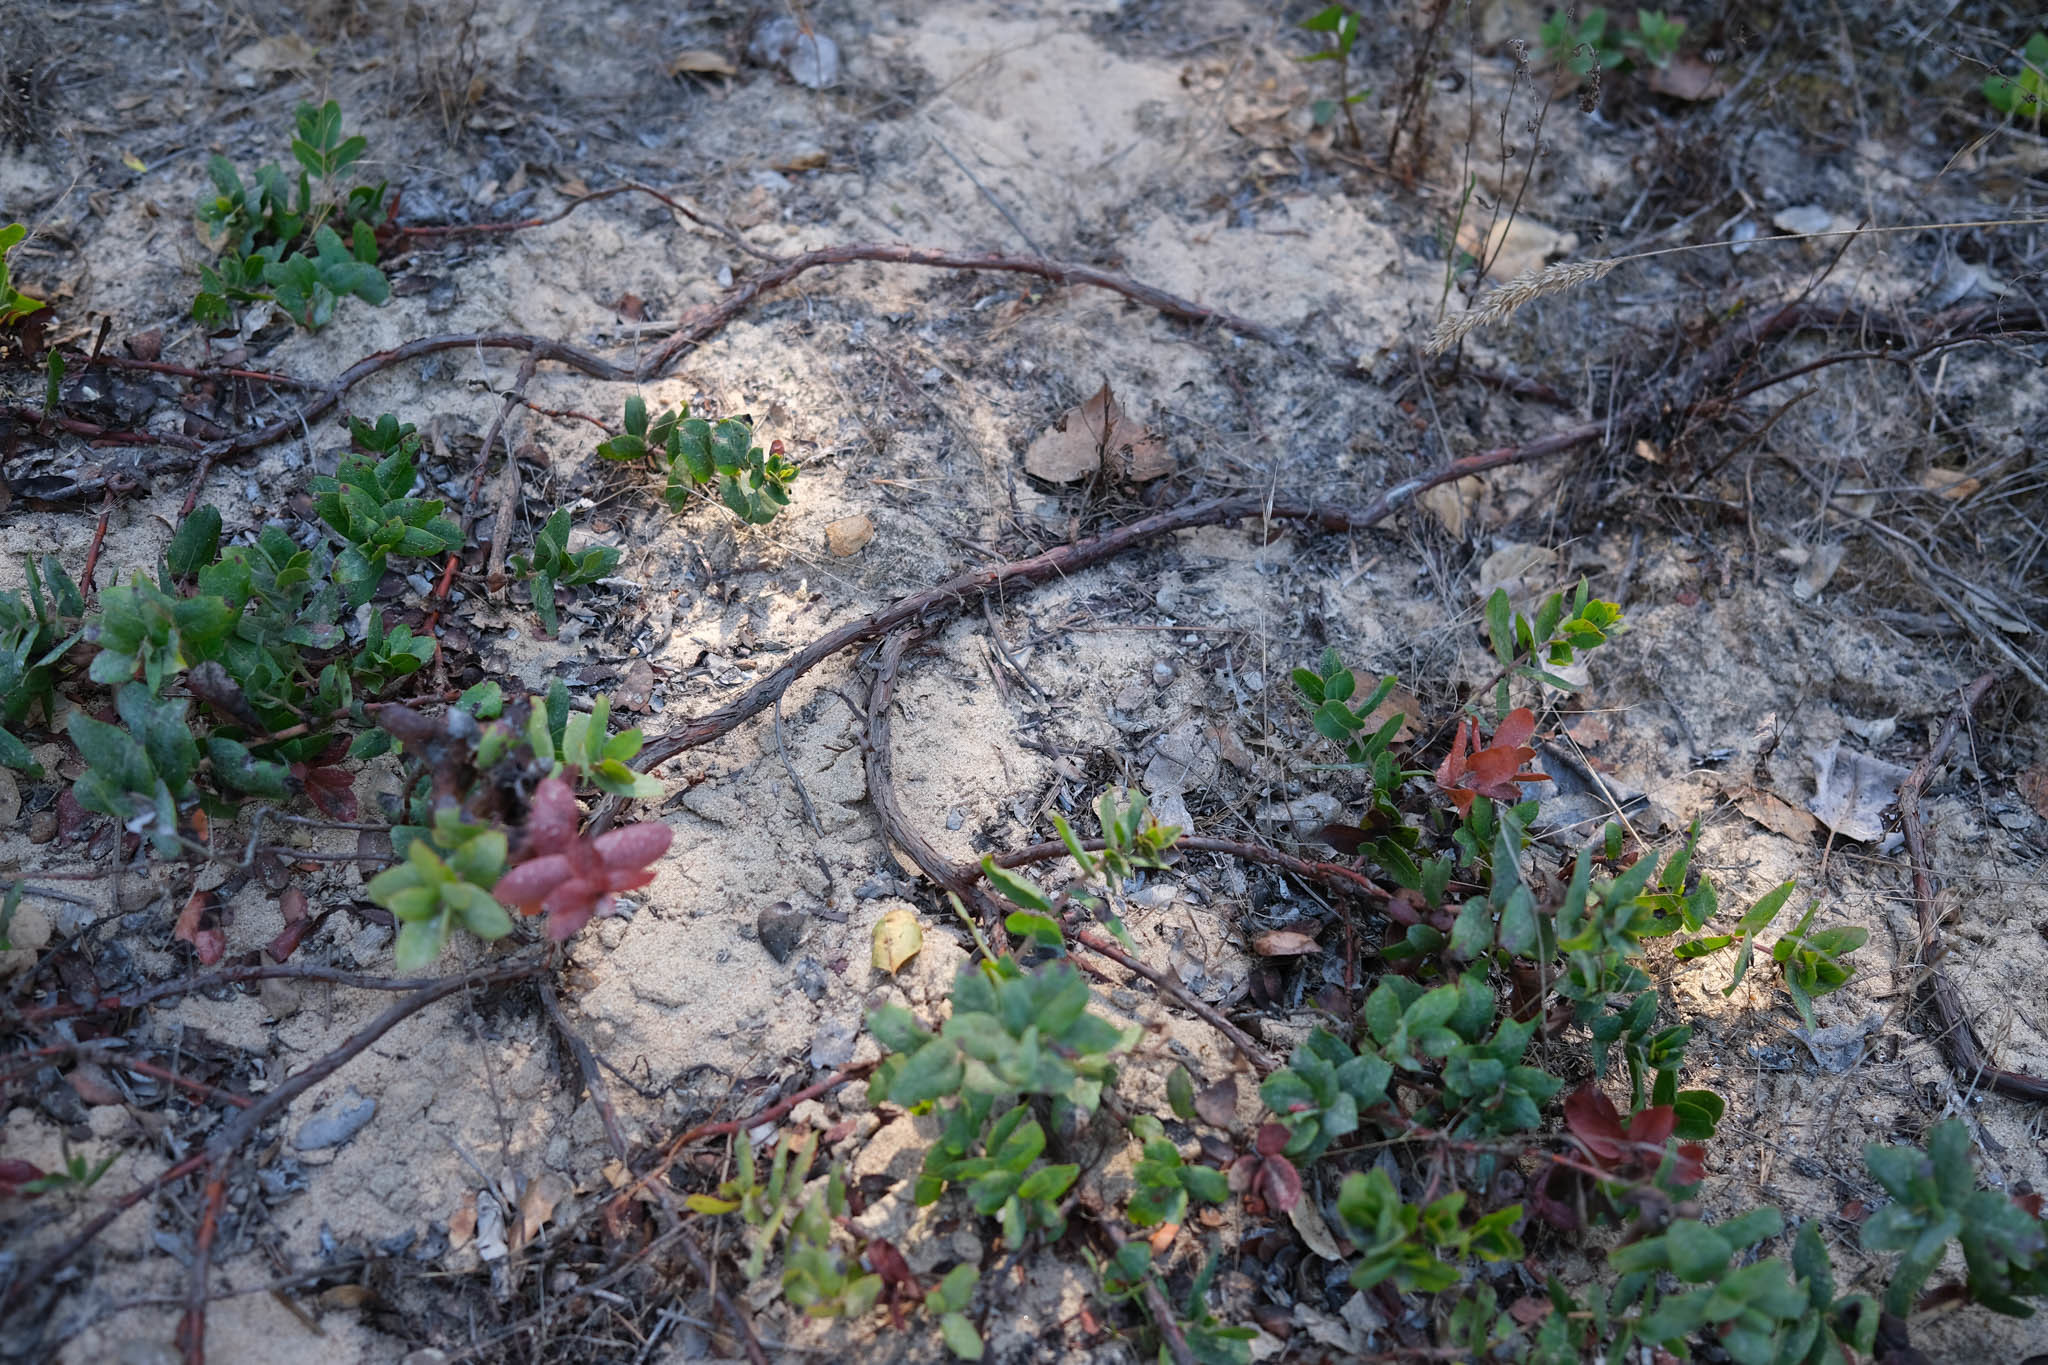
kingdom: Plantae
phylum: Tracheophyta
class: Magnoliopsida
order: Ericales
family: Ericaceae
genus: Arctostaphylos
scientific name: Arctostaphylos pajaroensis
